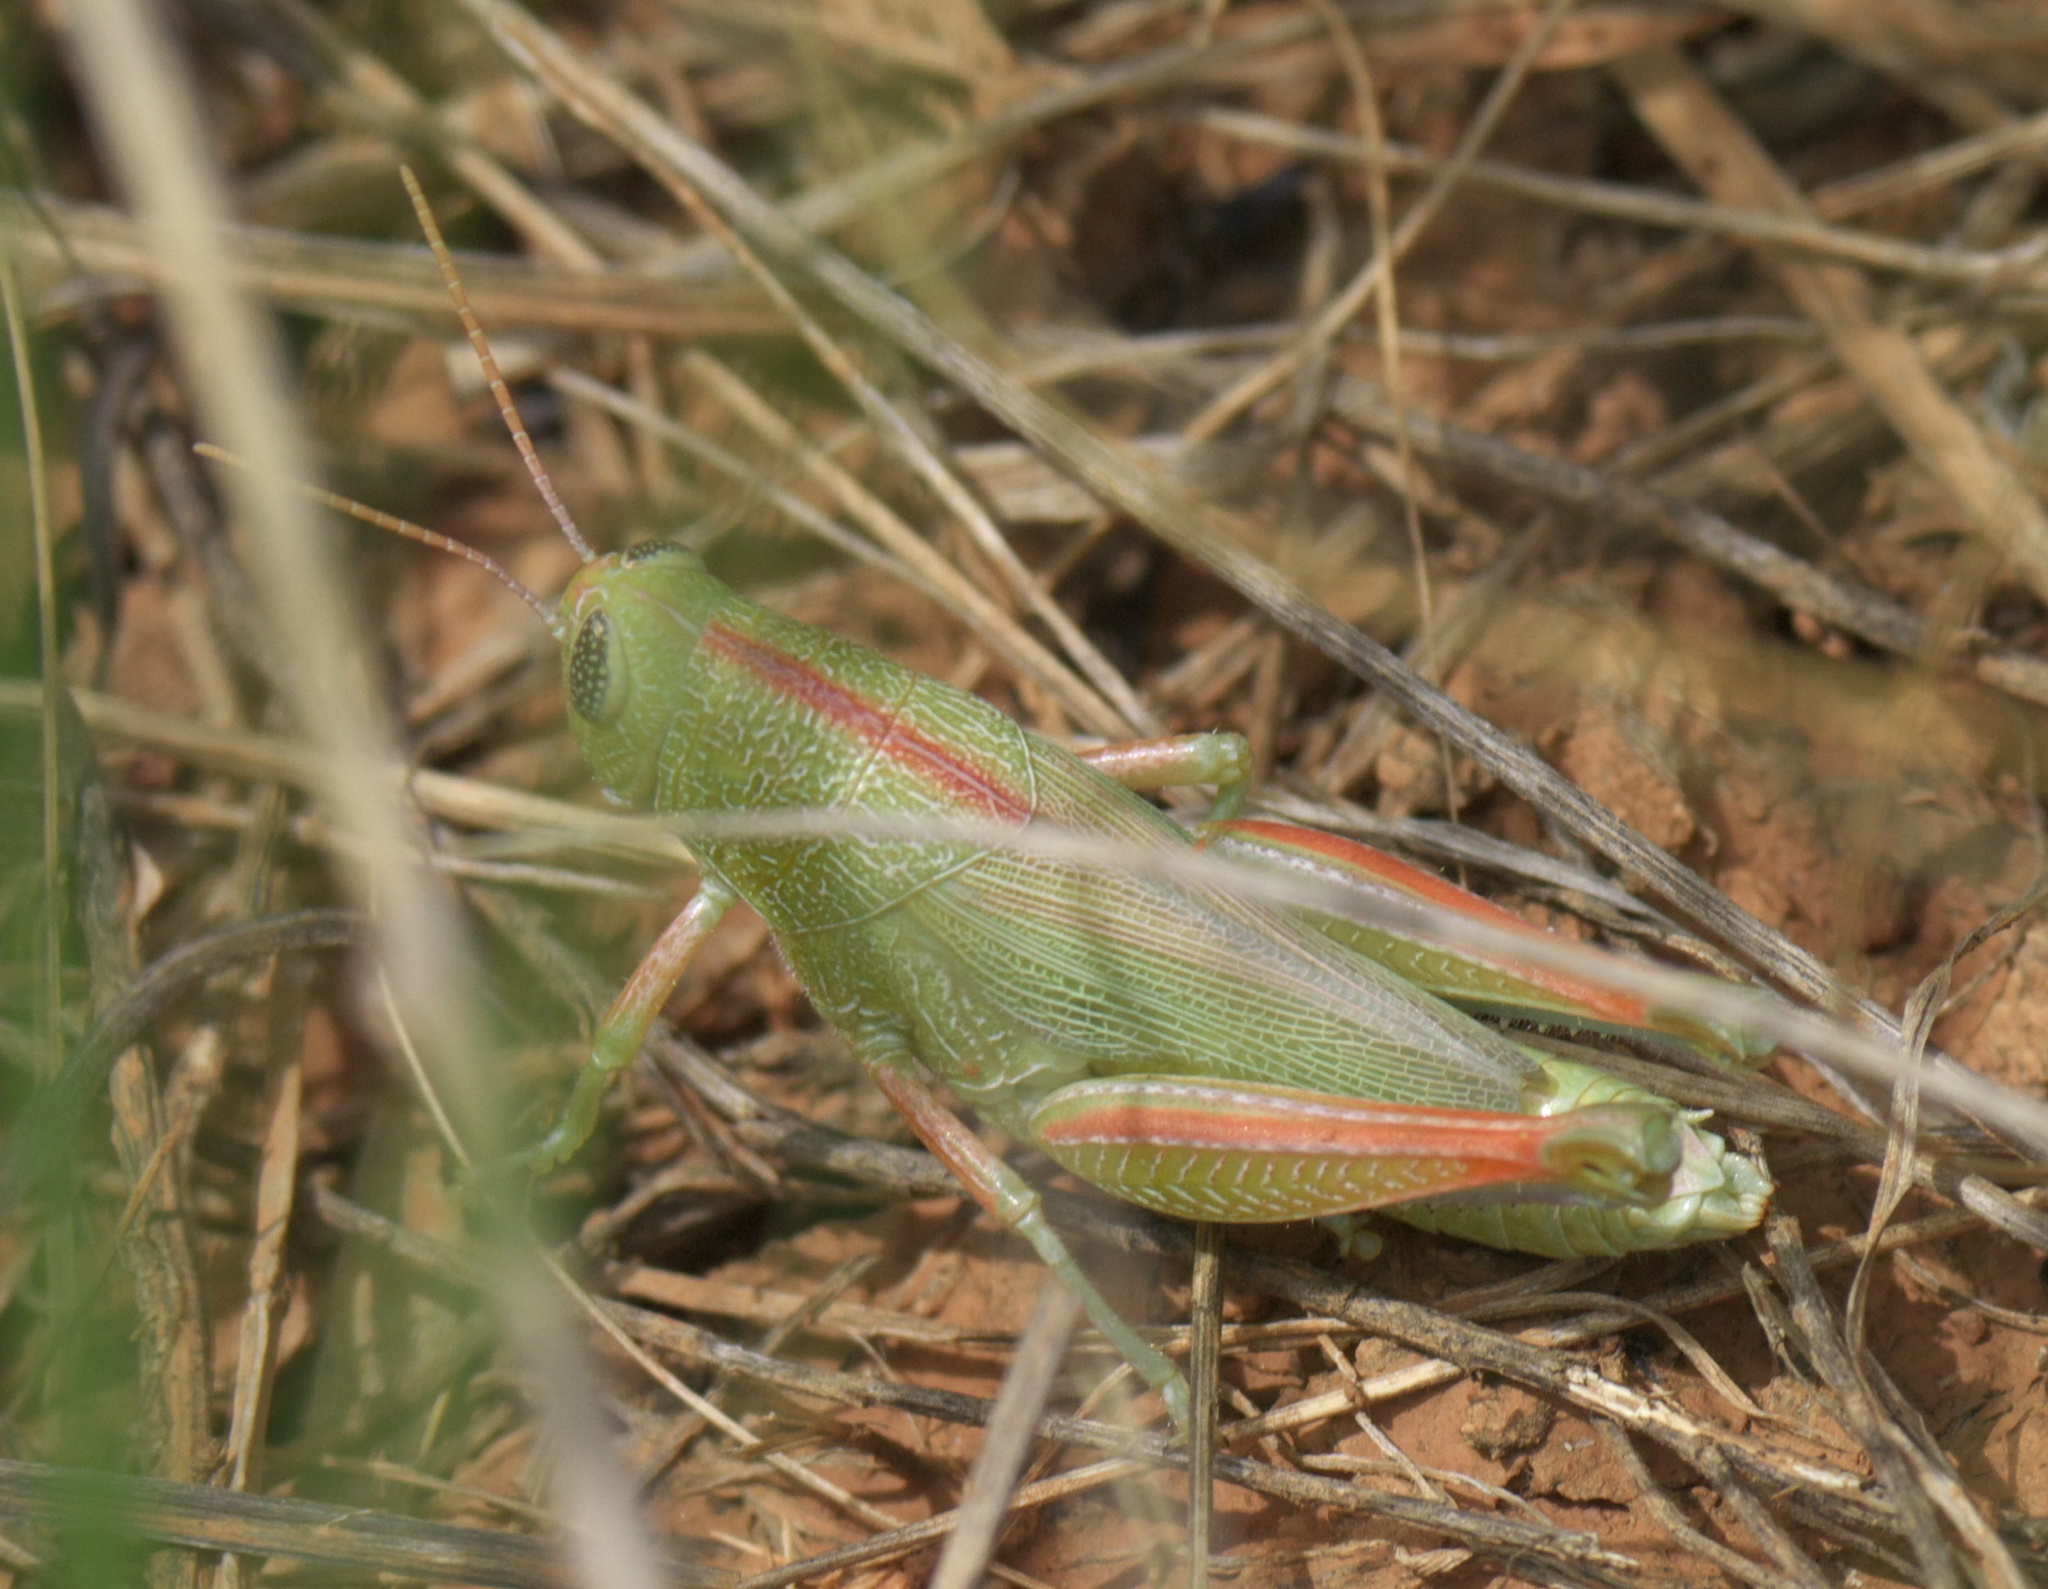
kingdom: Animalia
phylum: Arthropoda
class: Insecta
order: Orthoptera
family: Acrididae
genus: Hesperotettix
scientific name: Hesperotettix speciosus
